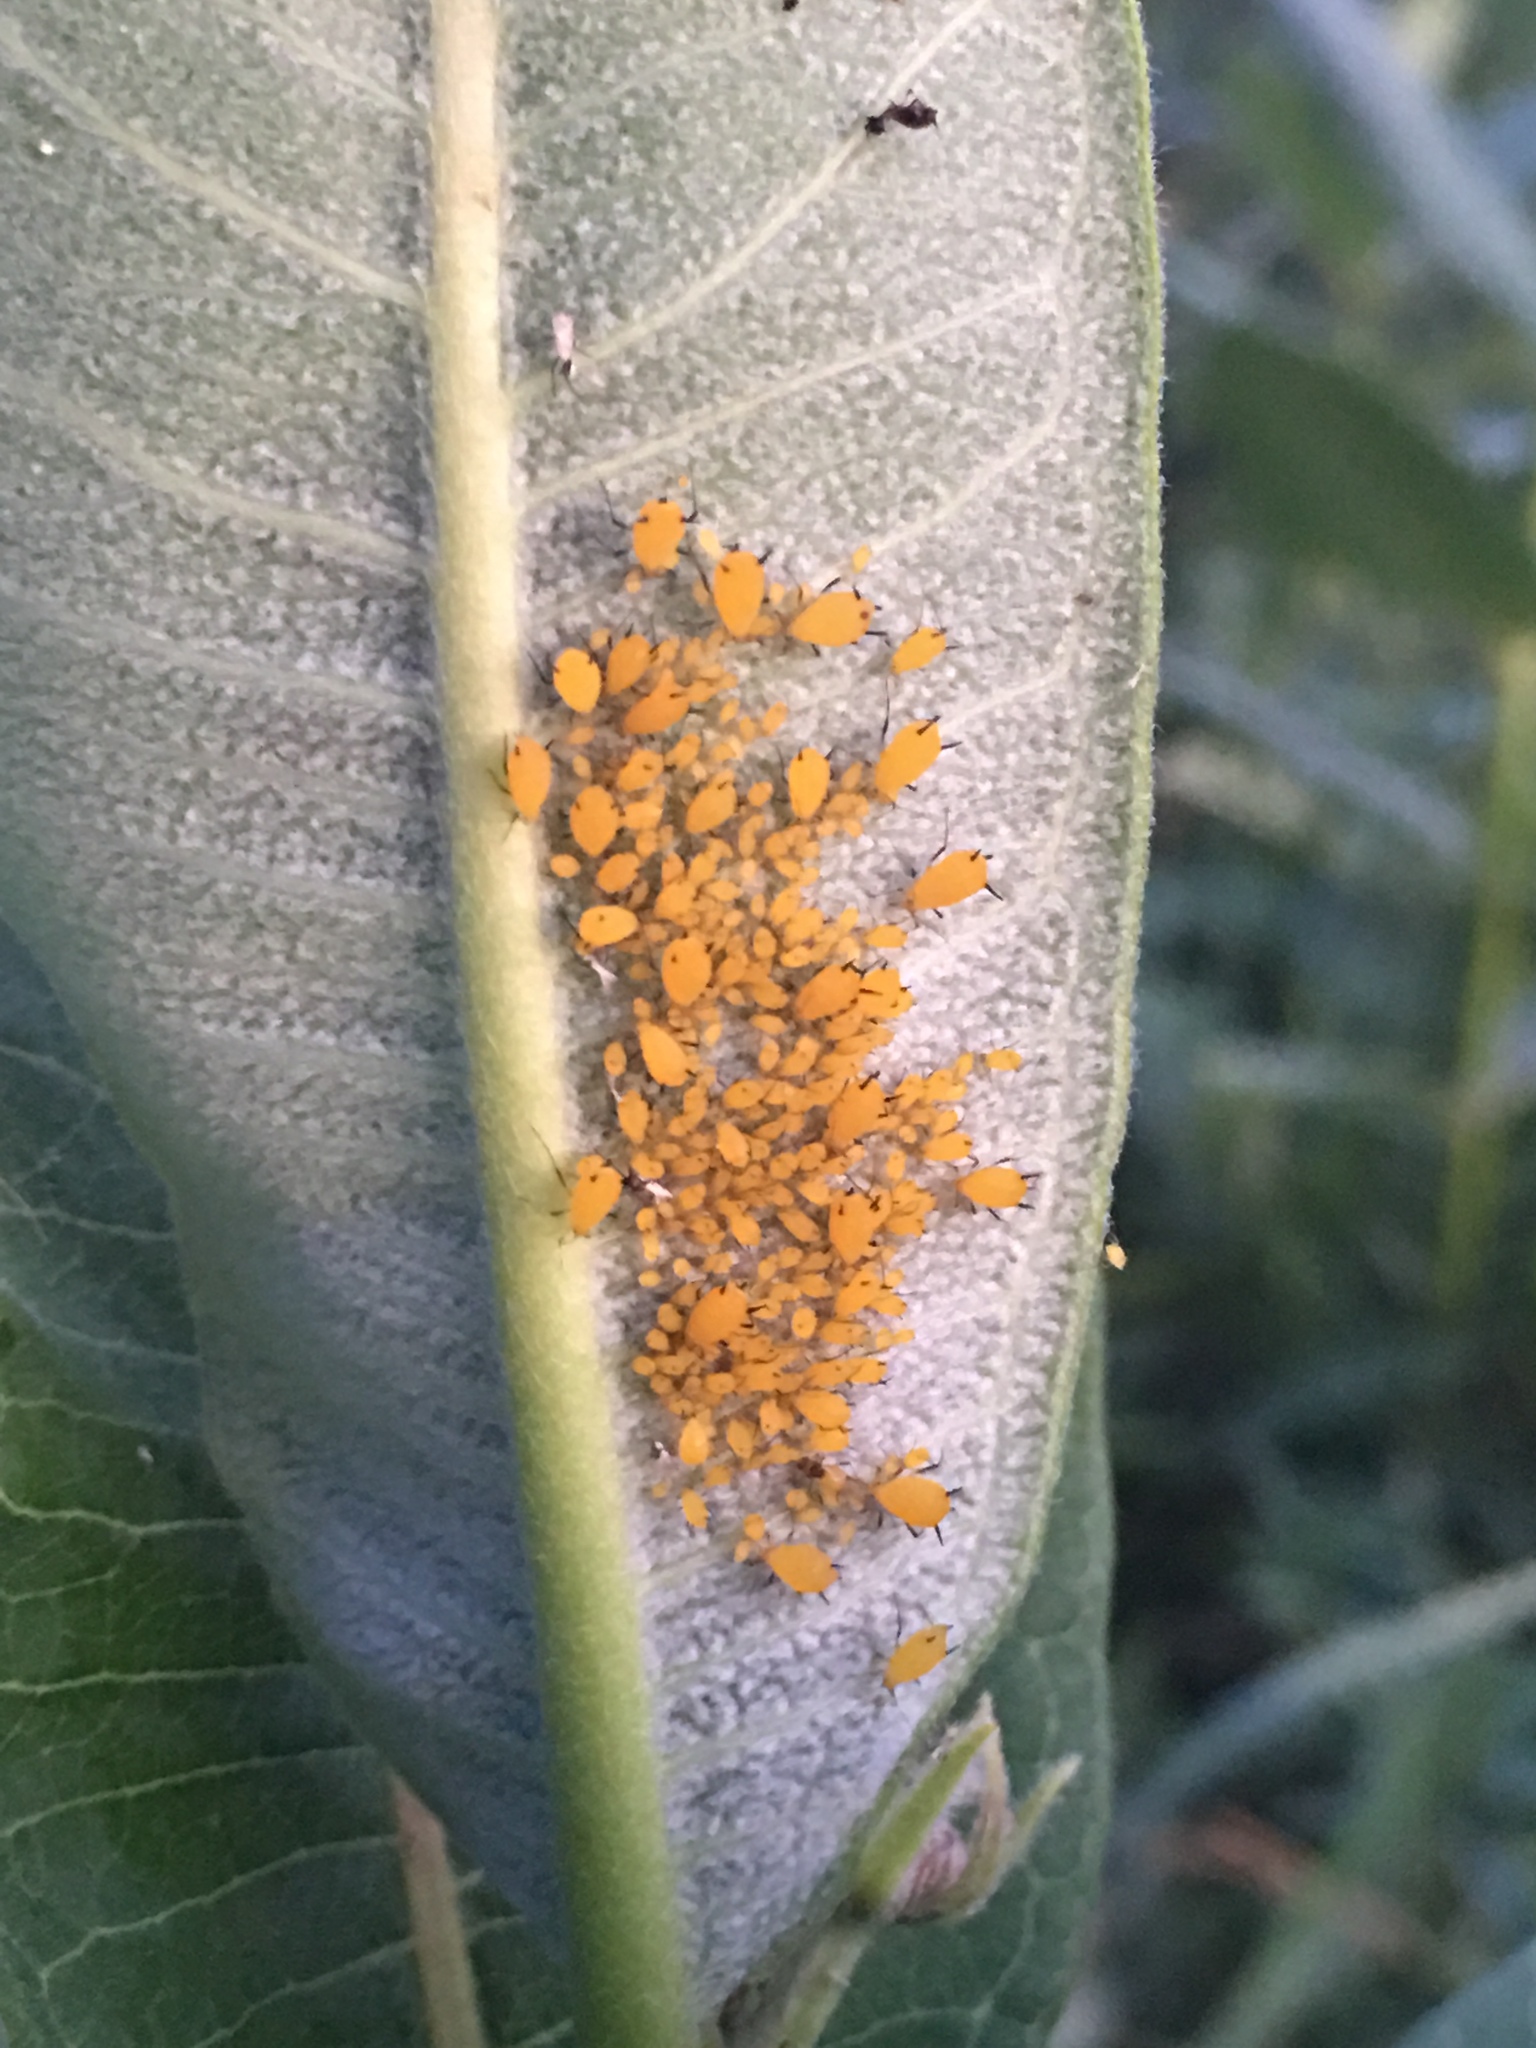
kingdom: Animalia
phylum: Arthropoda
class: Insecta
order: Hemiptera
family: Aphididae
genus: Aphis
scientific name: Aphis nerii
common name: Oleander aphid
